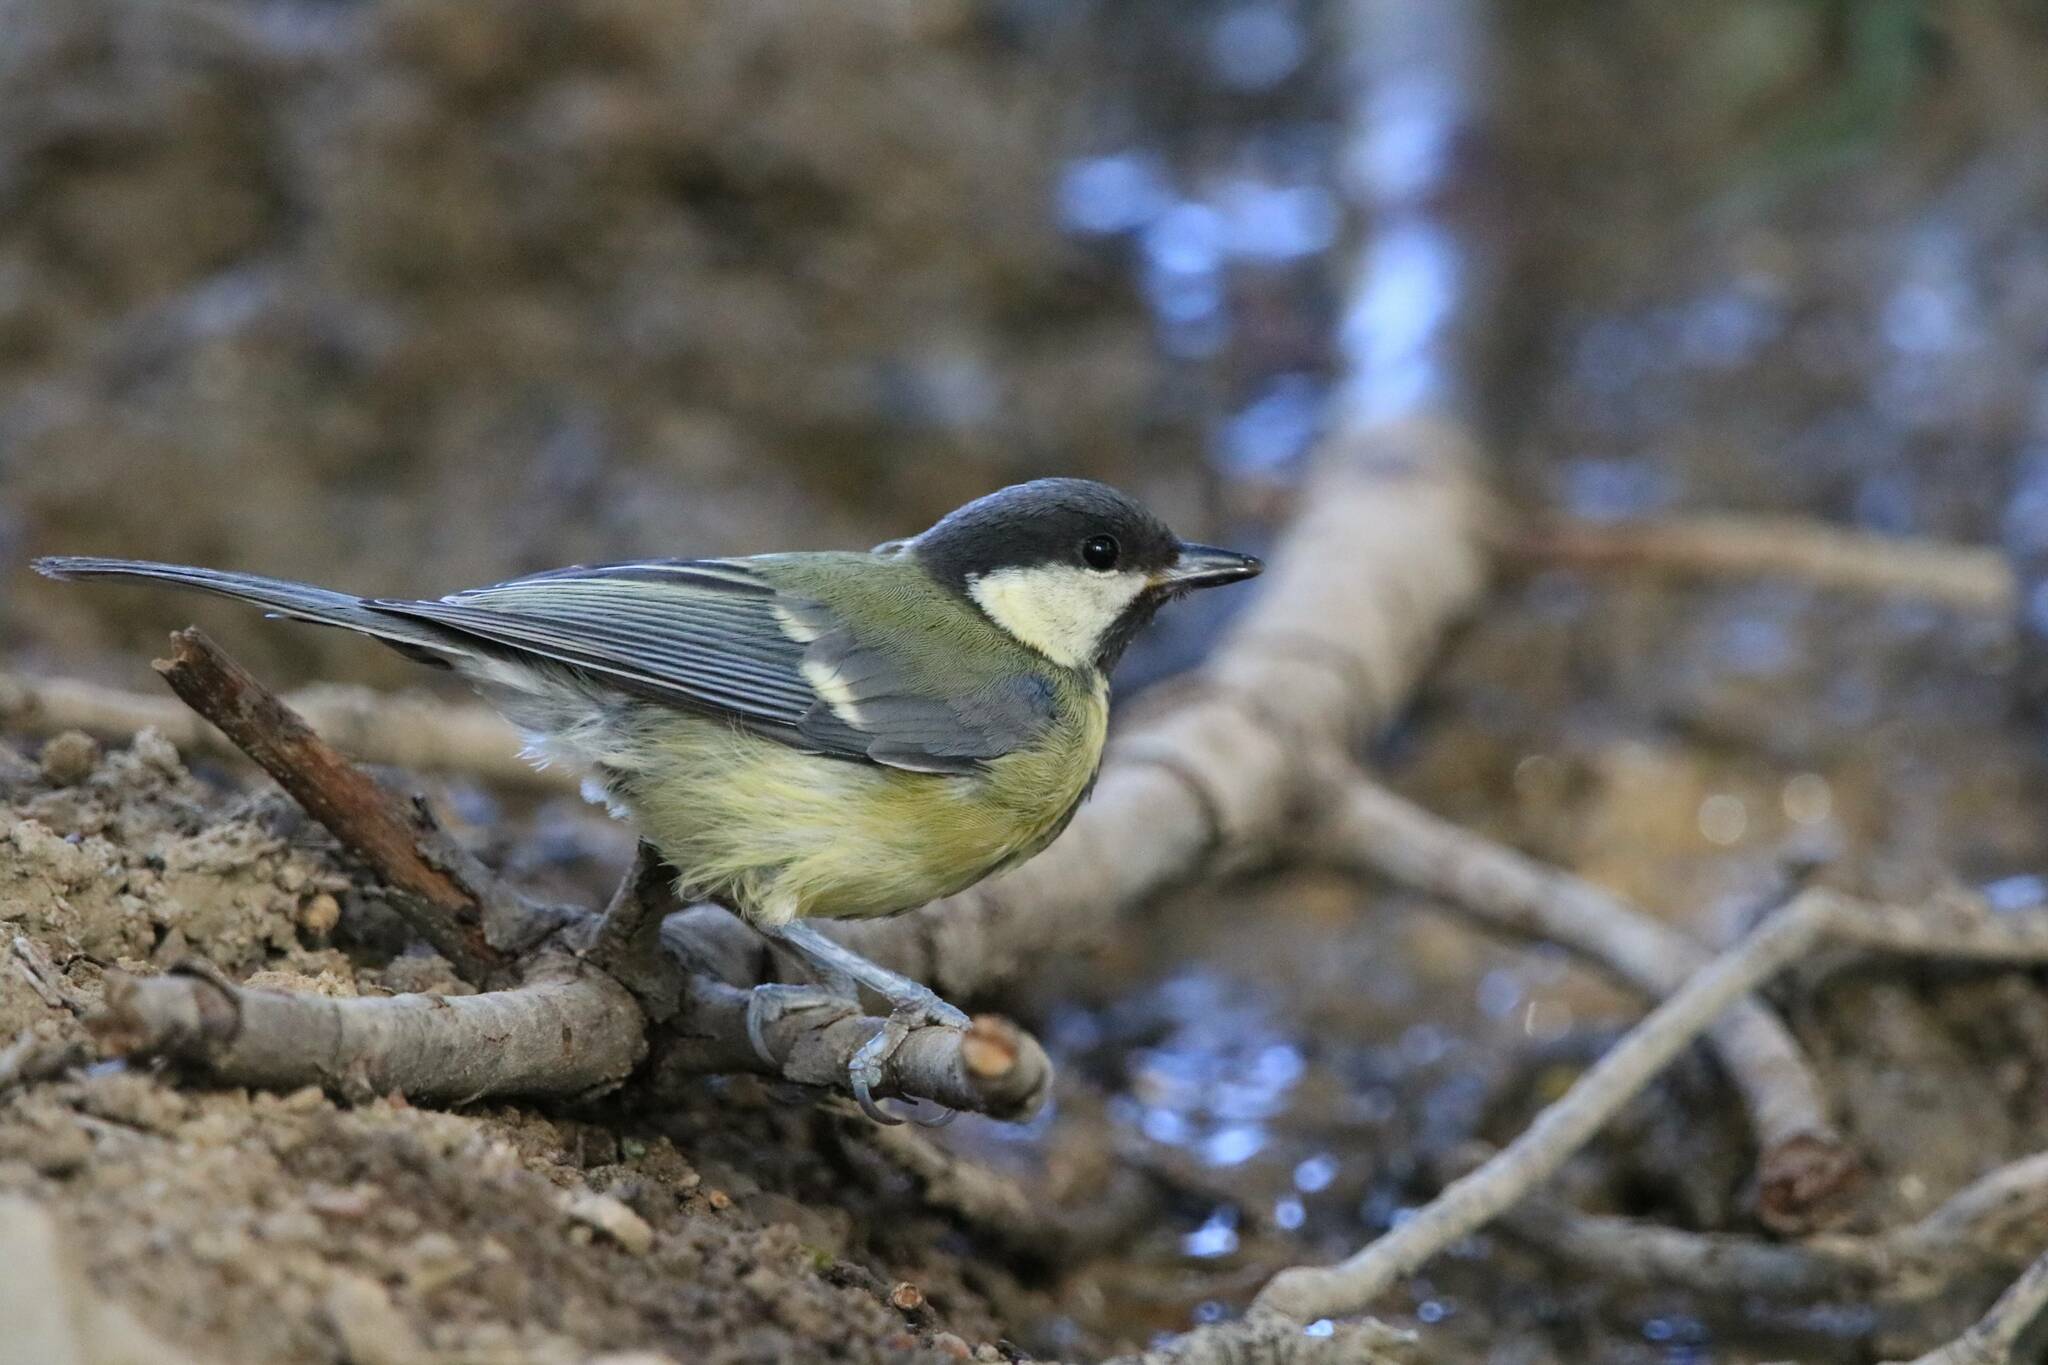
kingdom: Animalia
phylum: Chordata
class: Aves
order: Passeriformes
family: Paridae
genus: Parus
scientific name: Parus major
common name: Great tit
